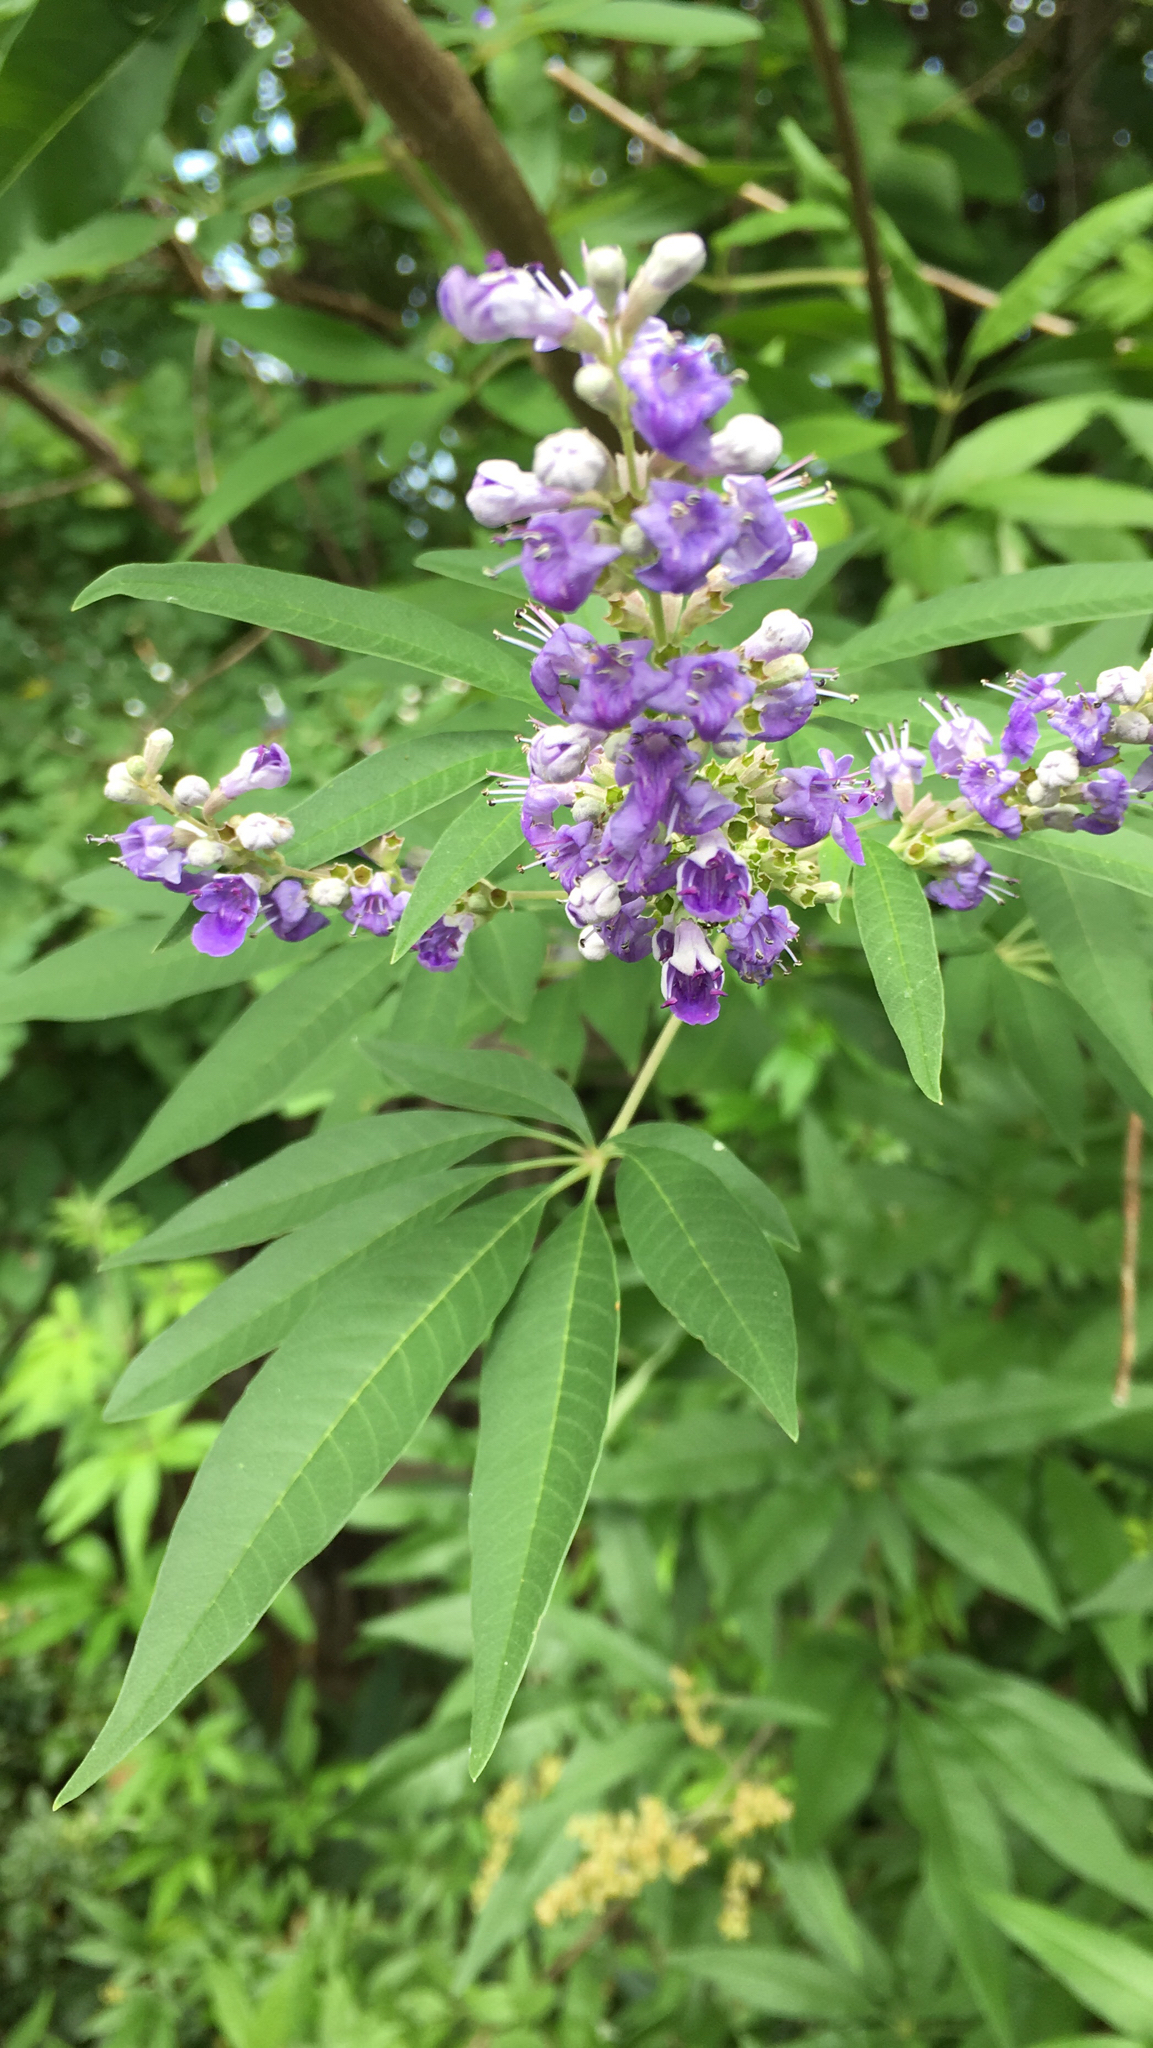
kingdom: Plantae
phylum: Tracheophyta
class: Magnoliopsida
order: Lamiales
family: Lamiaceae
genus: Vitex
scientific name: Vitex agnus-castus
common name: Chasteberry
